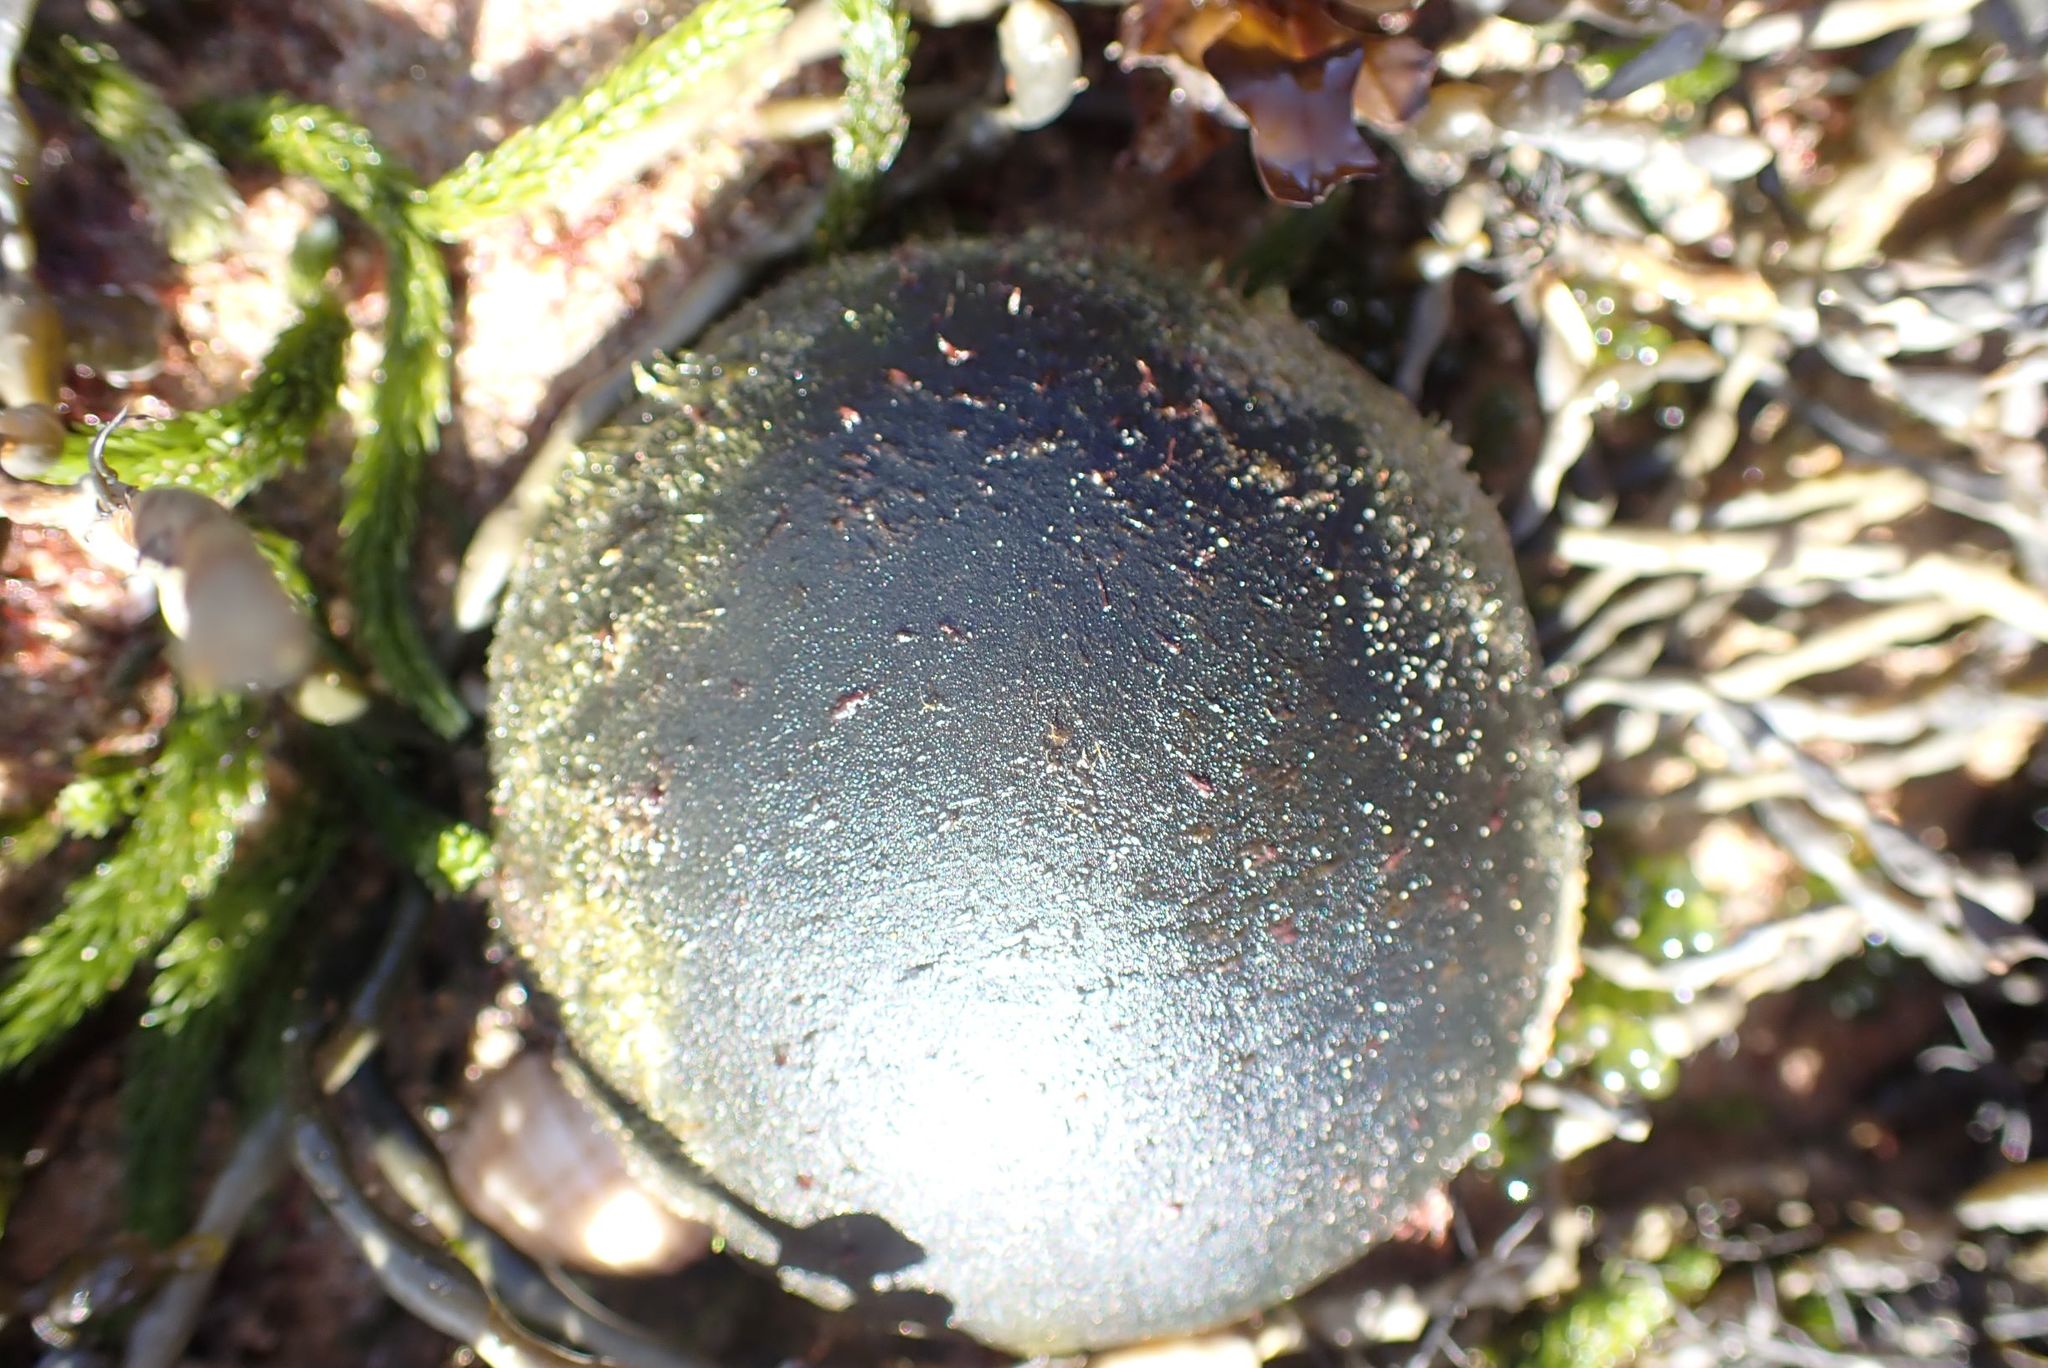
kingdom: Plantae
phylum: Chlorophyta
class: Ulvophyceae
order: Bryopsidales
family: Codiaceae
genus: Codium
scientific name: Codium
